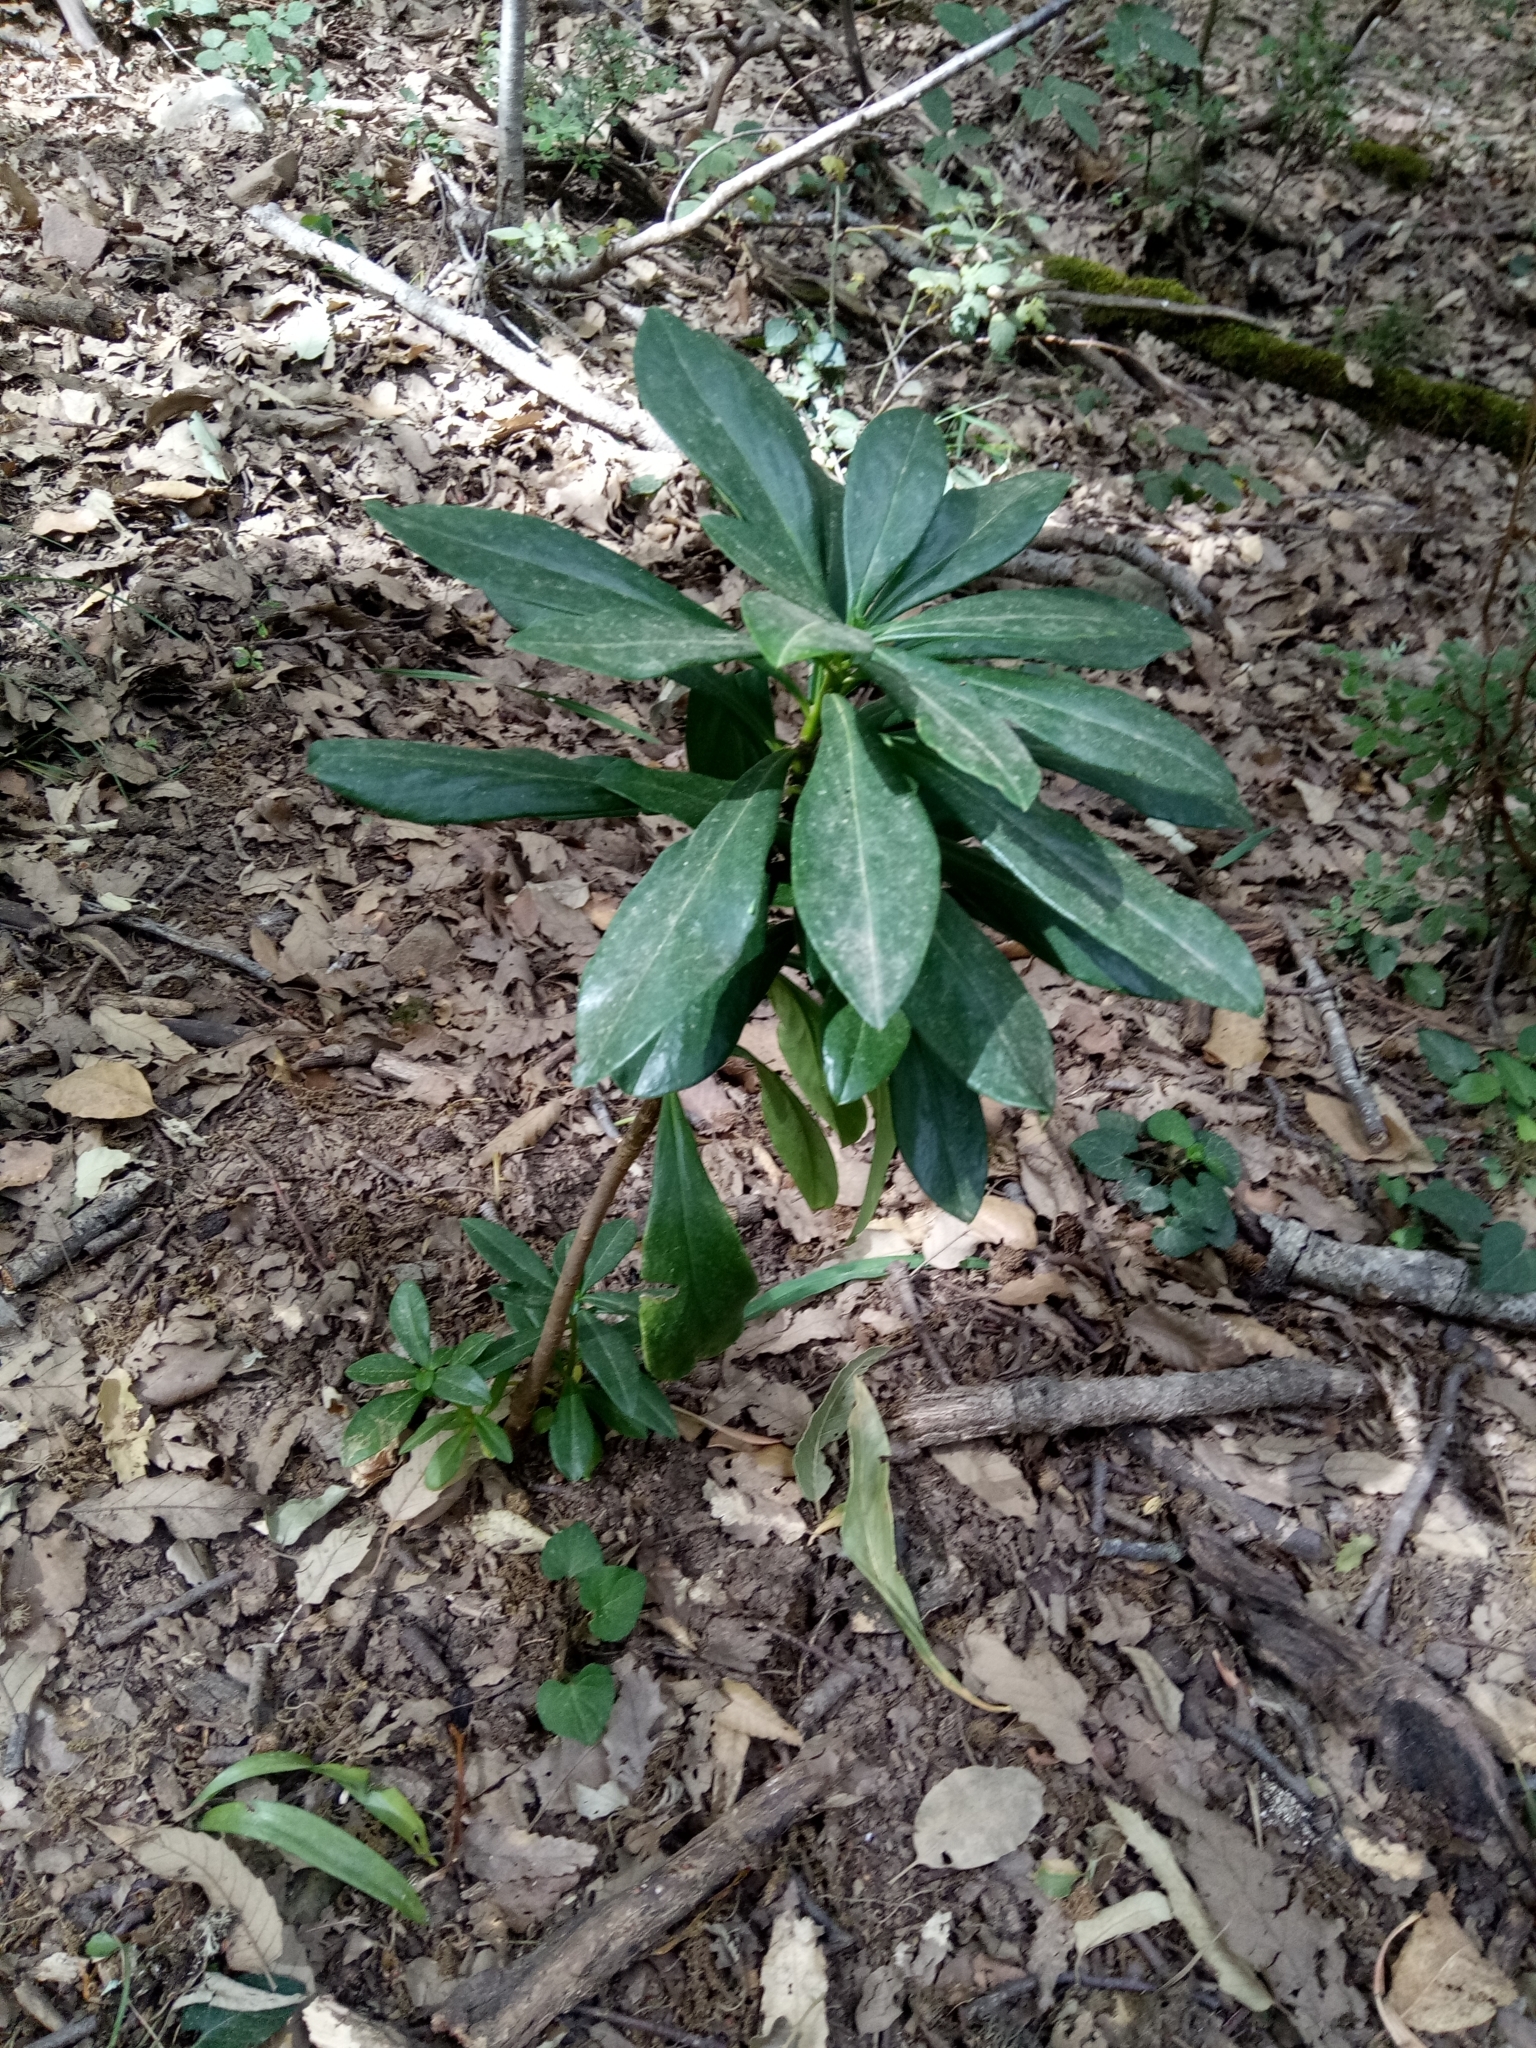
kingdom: Plantae
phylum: Tracheophyta
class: Magnoliopsida
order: Malvales
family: Thymelaeaceae
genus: Daphne
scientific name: Daphne laureola
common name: Spurge-laurel
